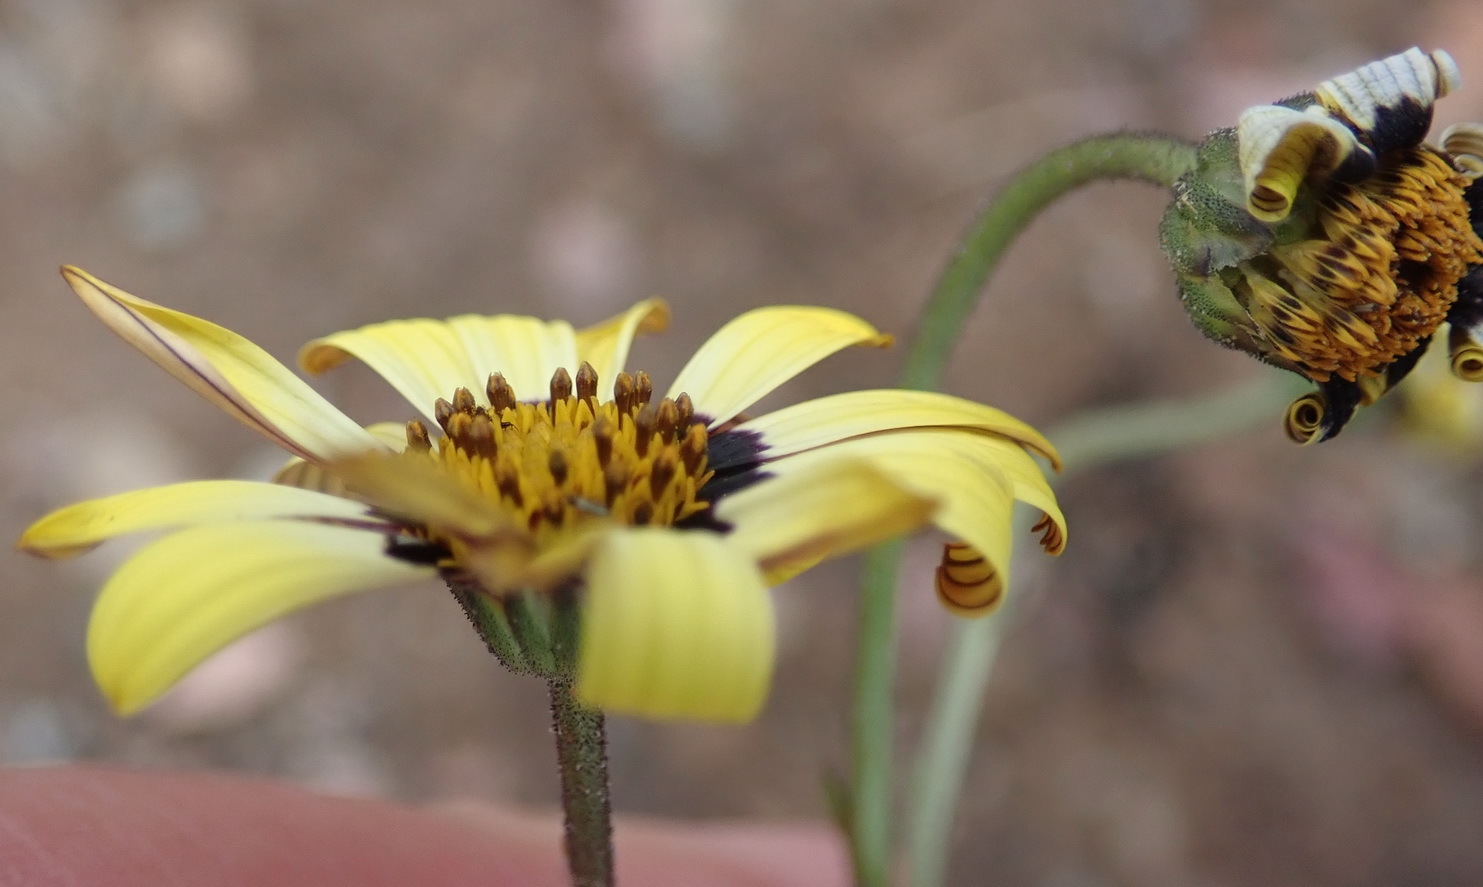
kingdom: Plantae
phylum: Tracheophyta
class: Magnoliopsida
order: Asterales
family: Asteraceae
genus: Osteospermum
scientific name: Osteospermum monstrosum
